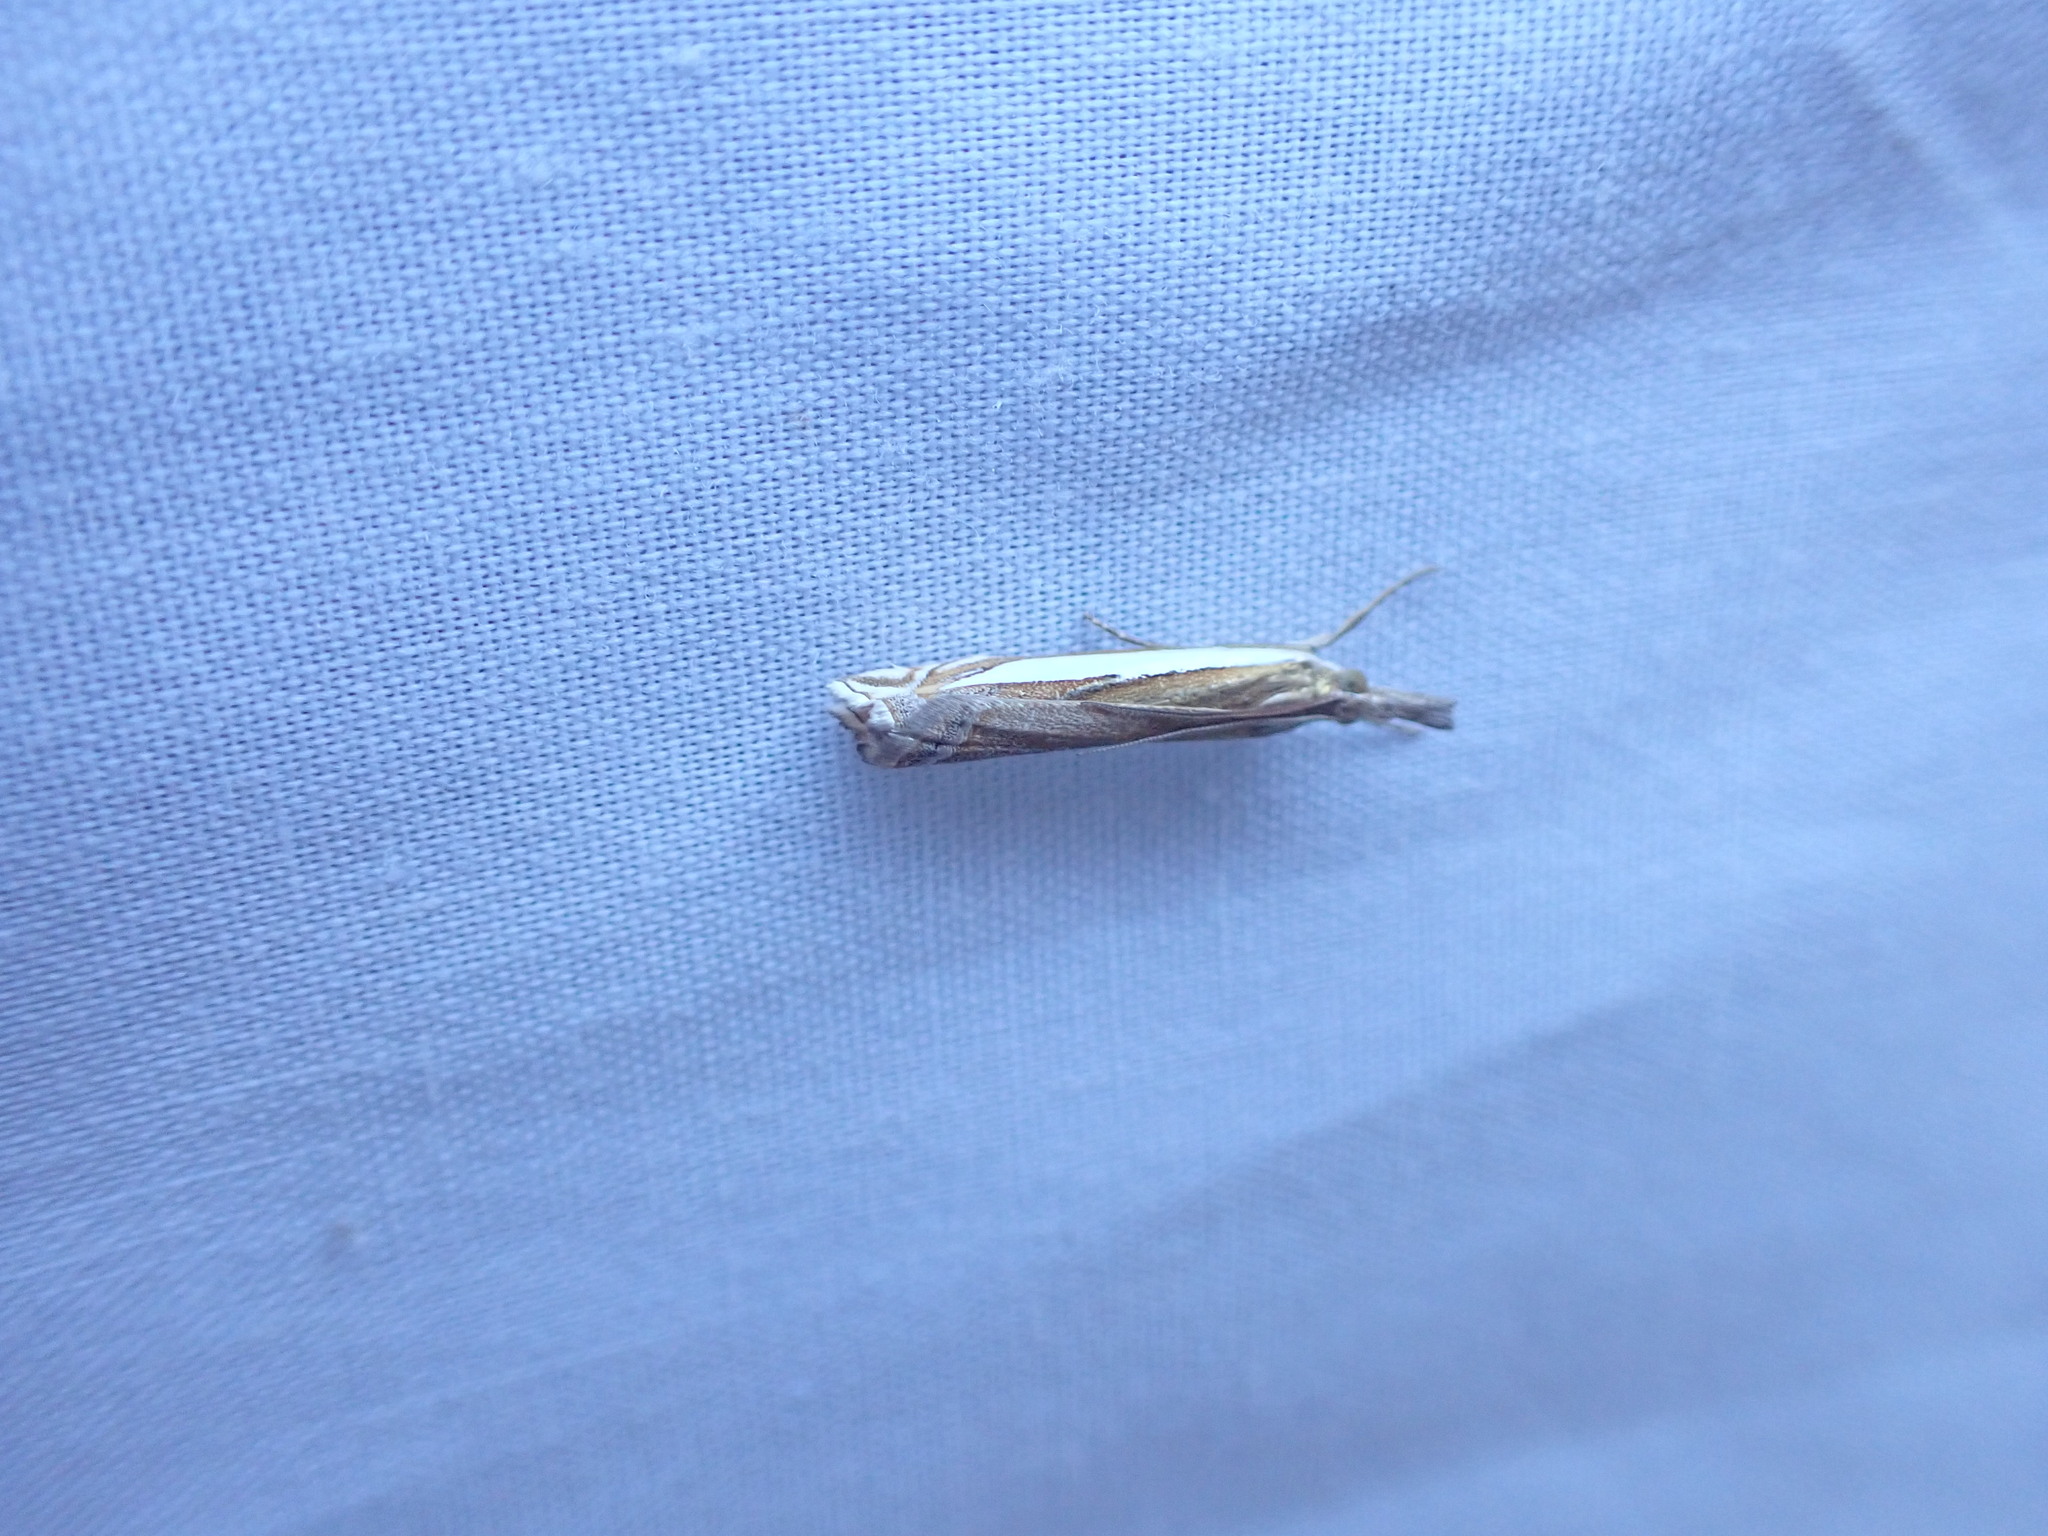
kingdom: Animalia
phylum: Arthropoda
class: Insecta
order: Lepidoptera
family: Crambidae
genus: Crambus
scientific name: Crambus leachellus
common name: Leach's grass-veneer
